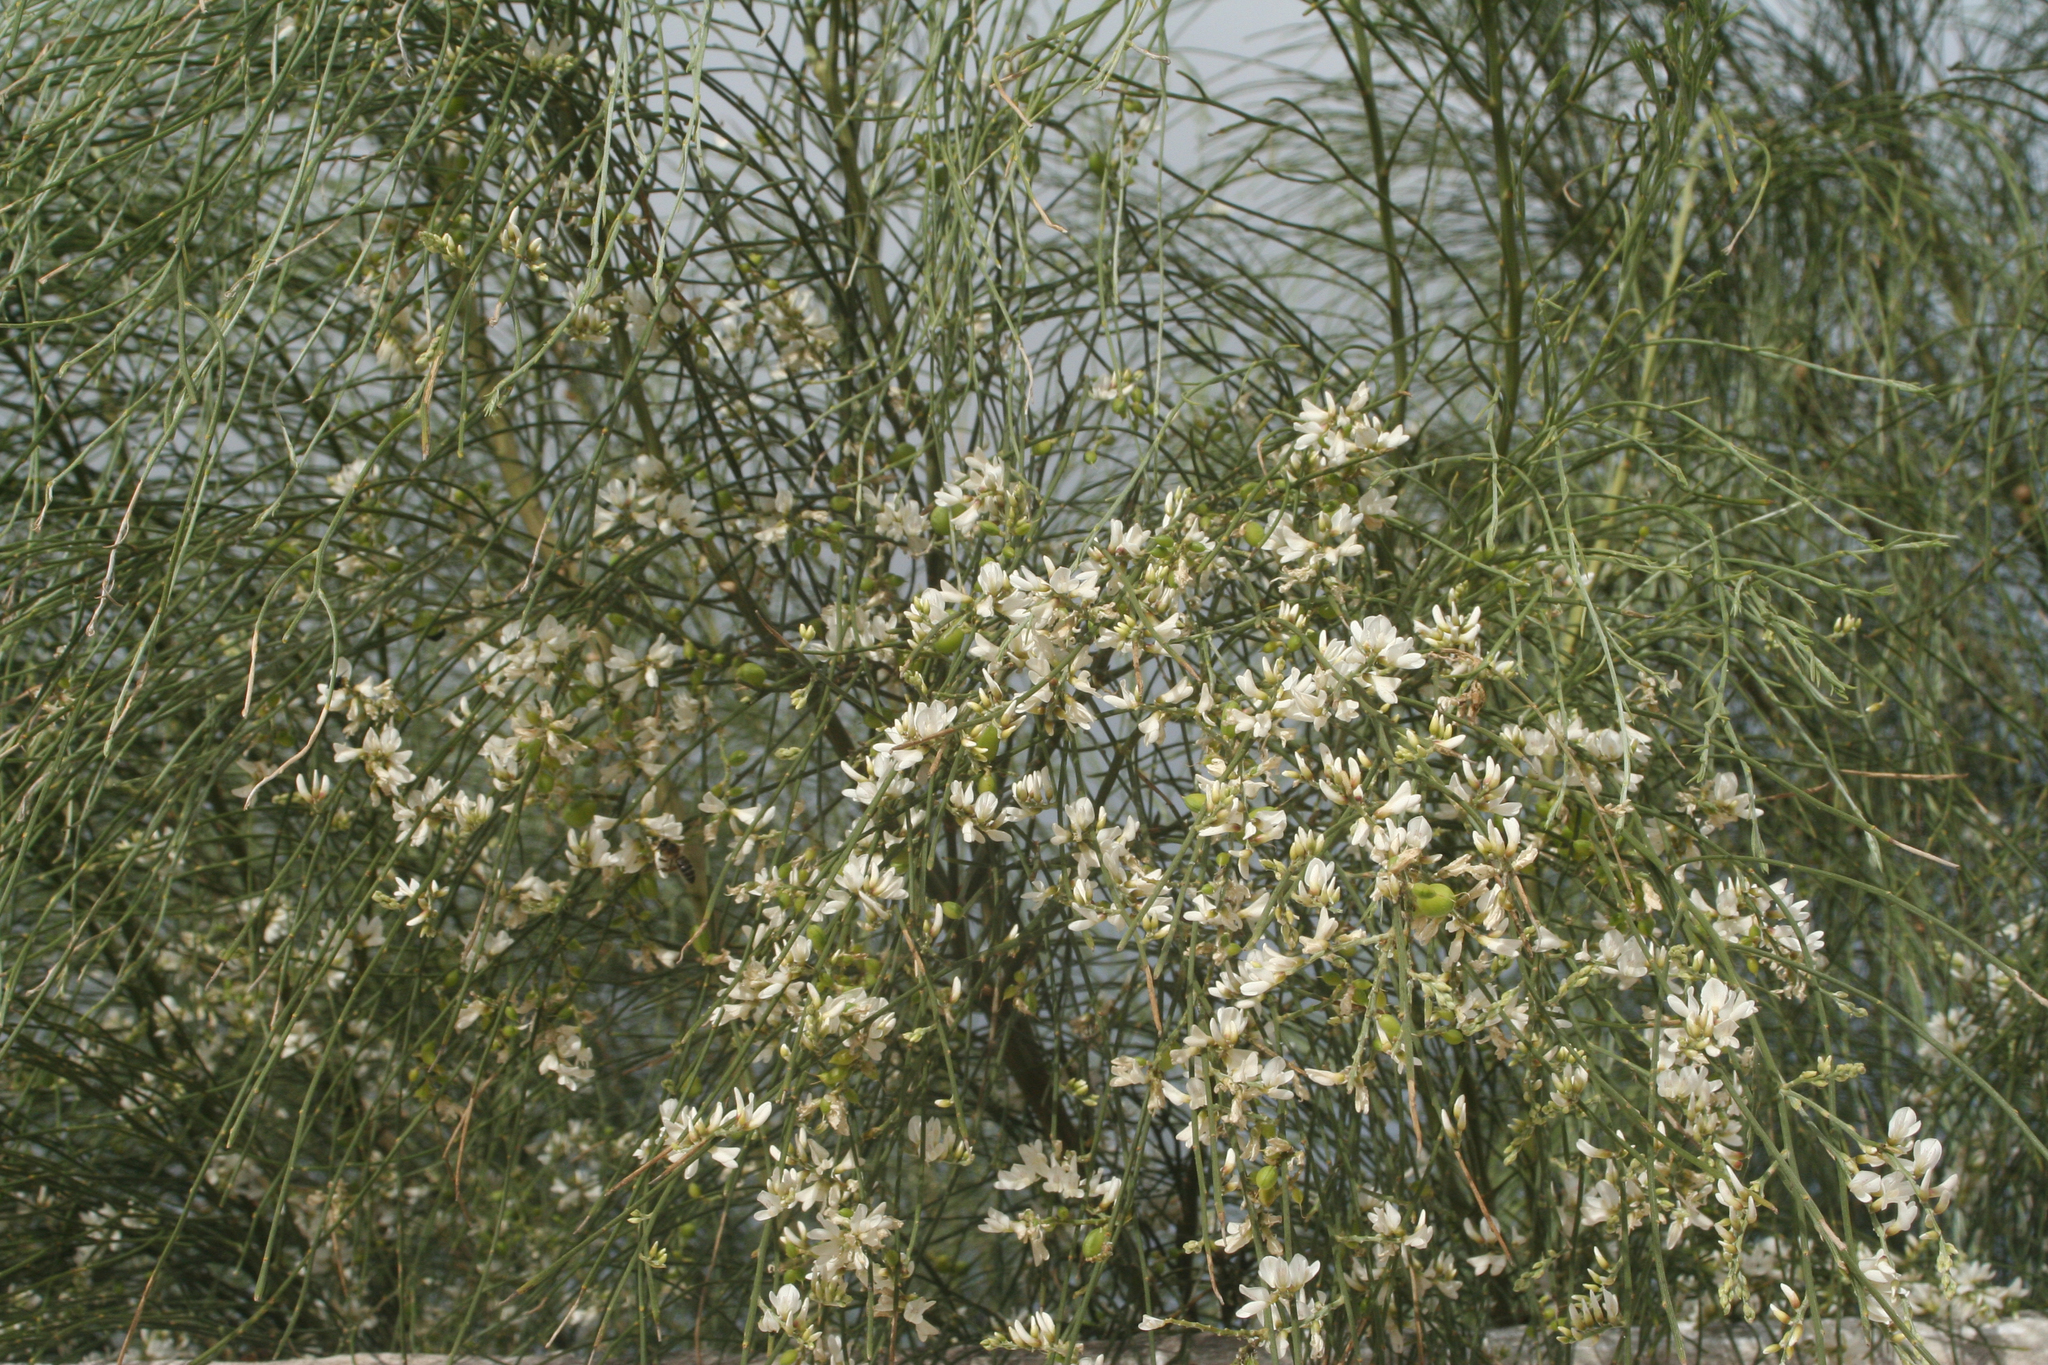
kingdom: Plantae
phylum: Tracheophyta
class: Magnoliopsida
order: Fabales
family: Fabaceae
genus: Retama
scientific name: Retama monosperma
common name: Bridal broom
